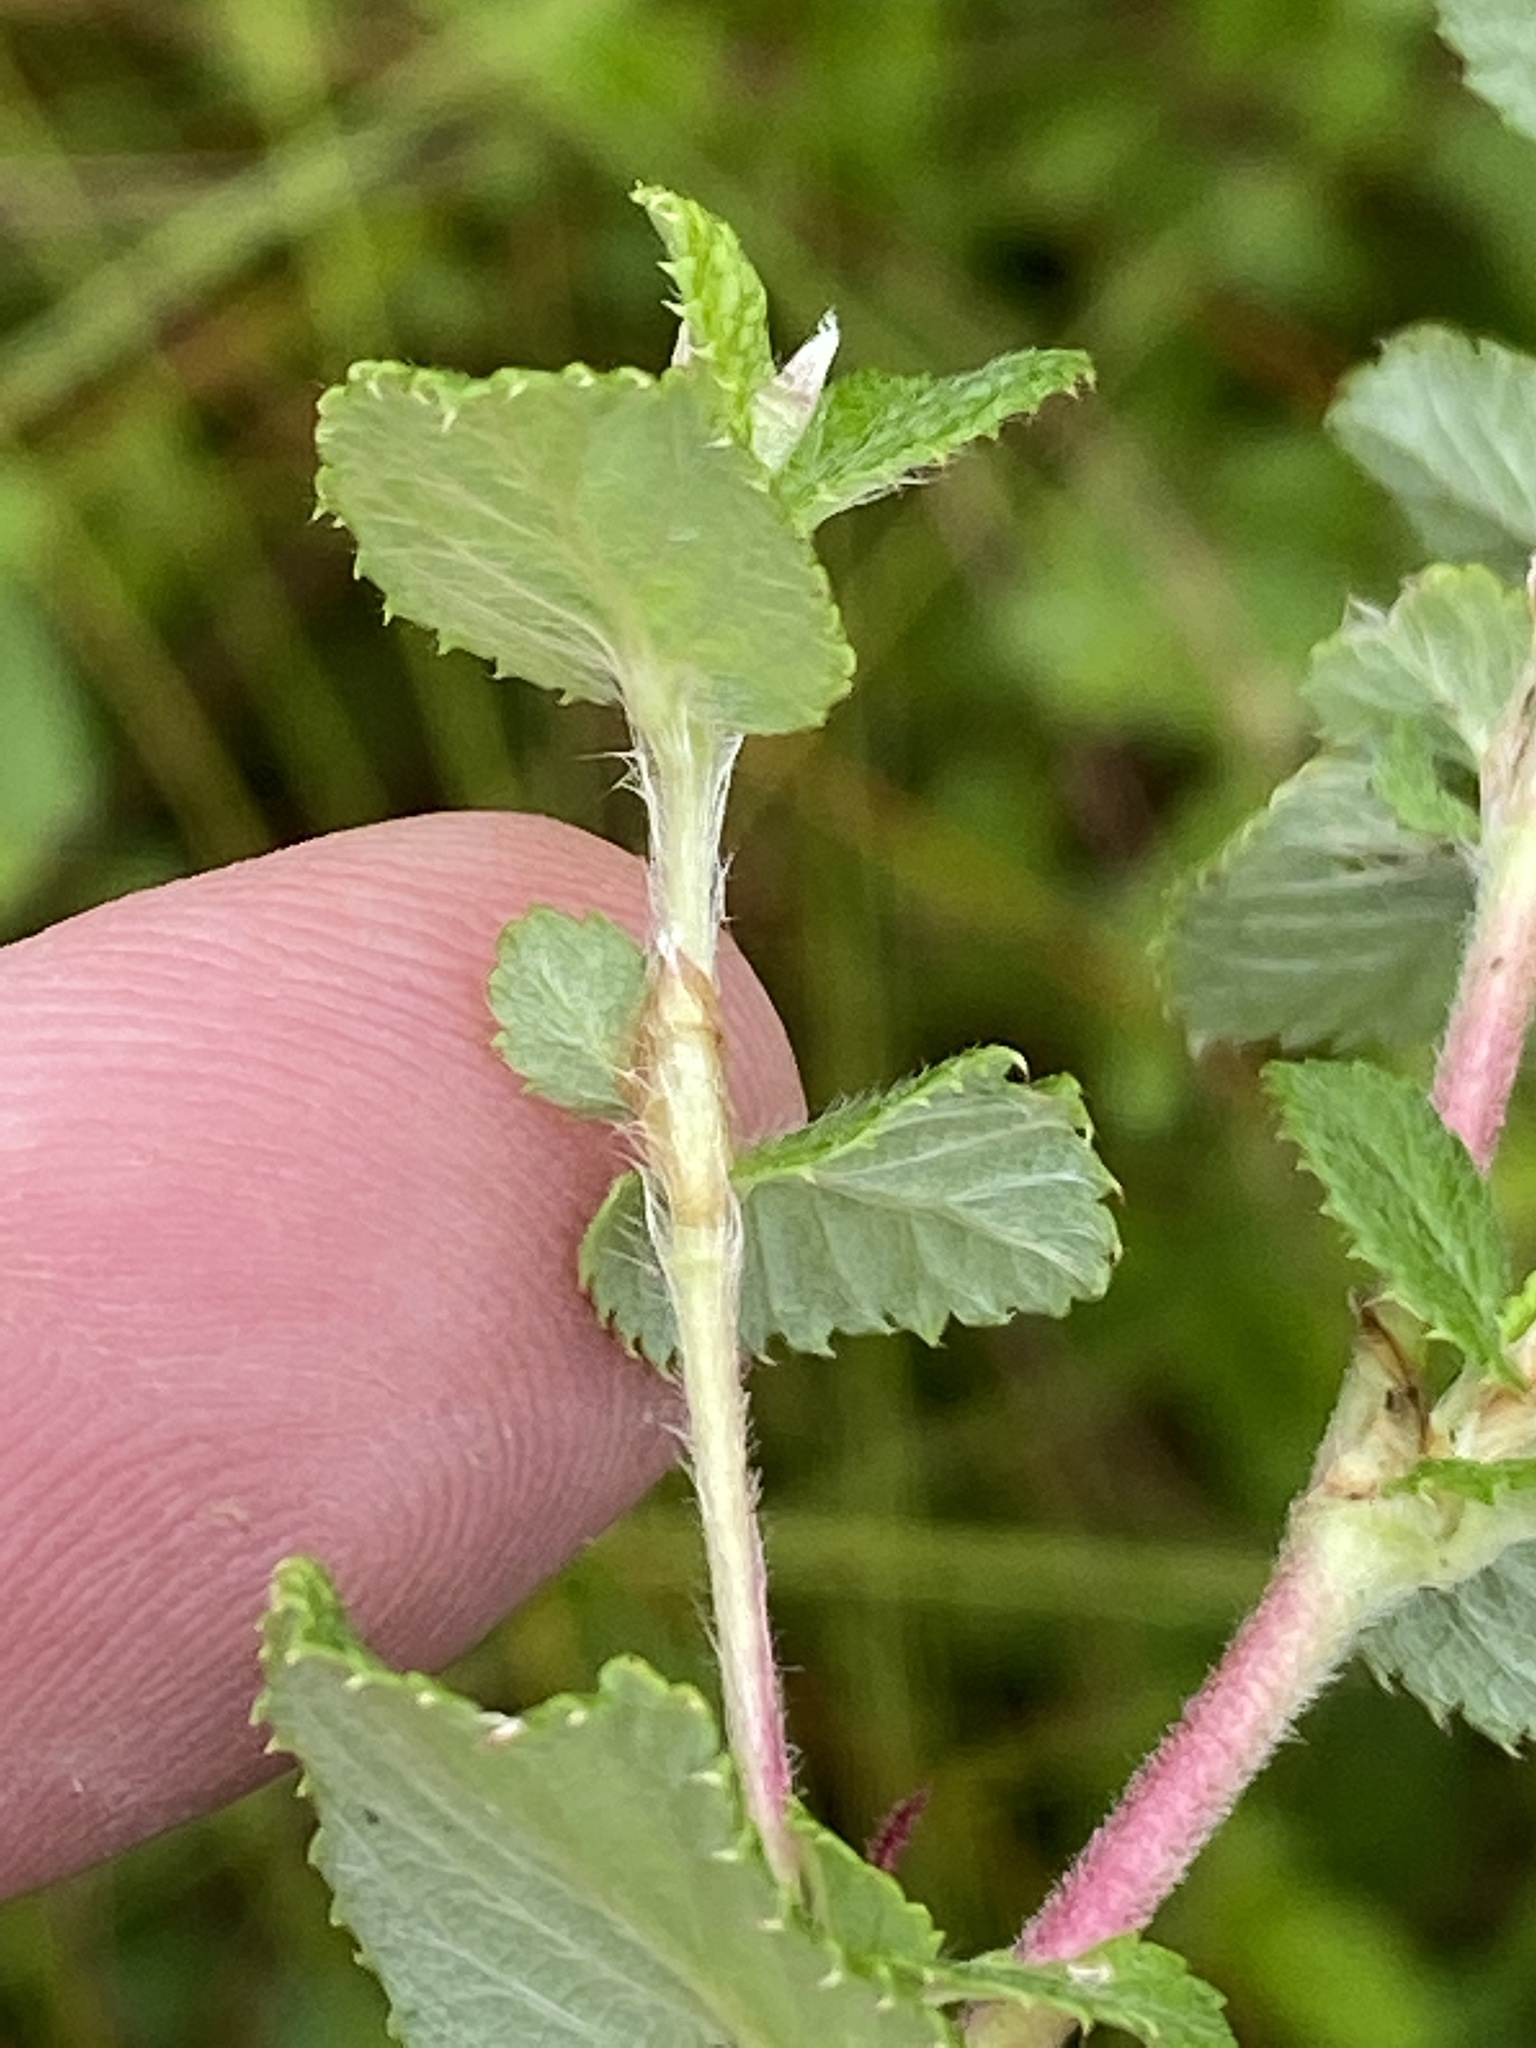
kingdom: Plantae
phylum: Tracheophyta
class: Magnoliopsida
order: Rosales
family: Rosaceae
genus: Cliffortia
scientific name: Cliffortia odorata
